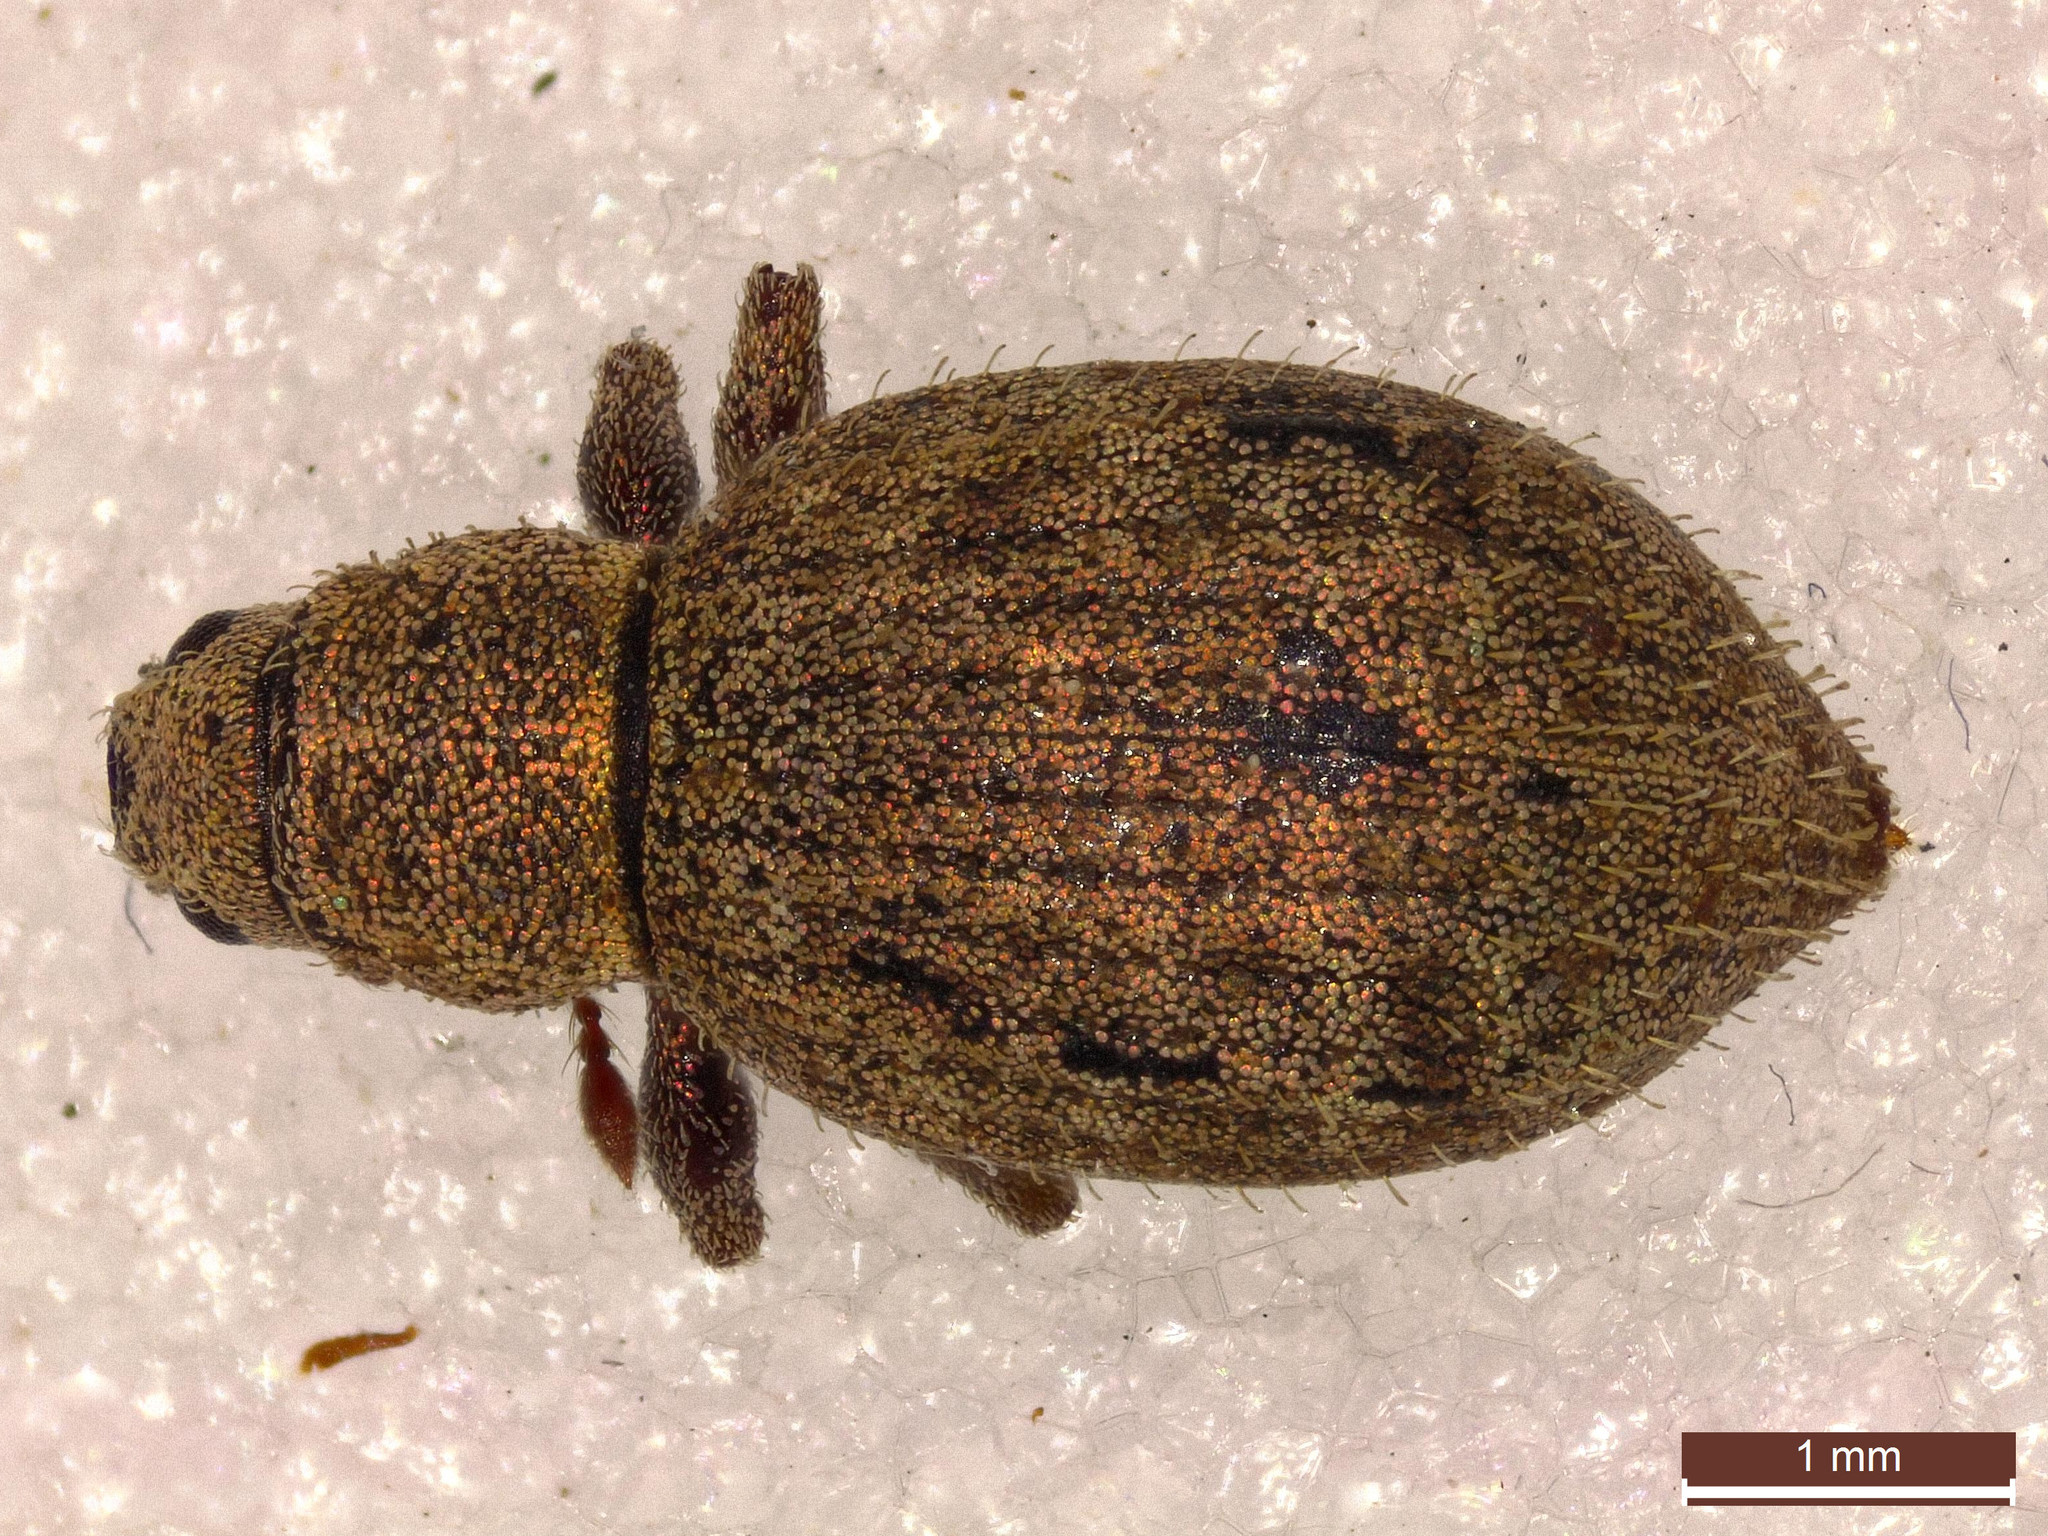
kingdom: Animalia
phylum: Arthropoda
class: Insecta
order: Coleoptera
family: Curculionidae
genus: Sciaphilus
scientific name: Sciaphilus asperatus
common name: Weevil
